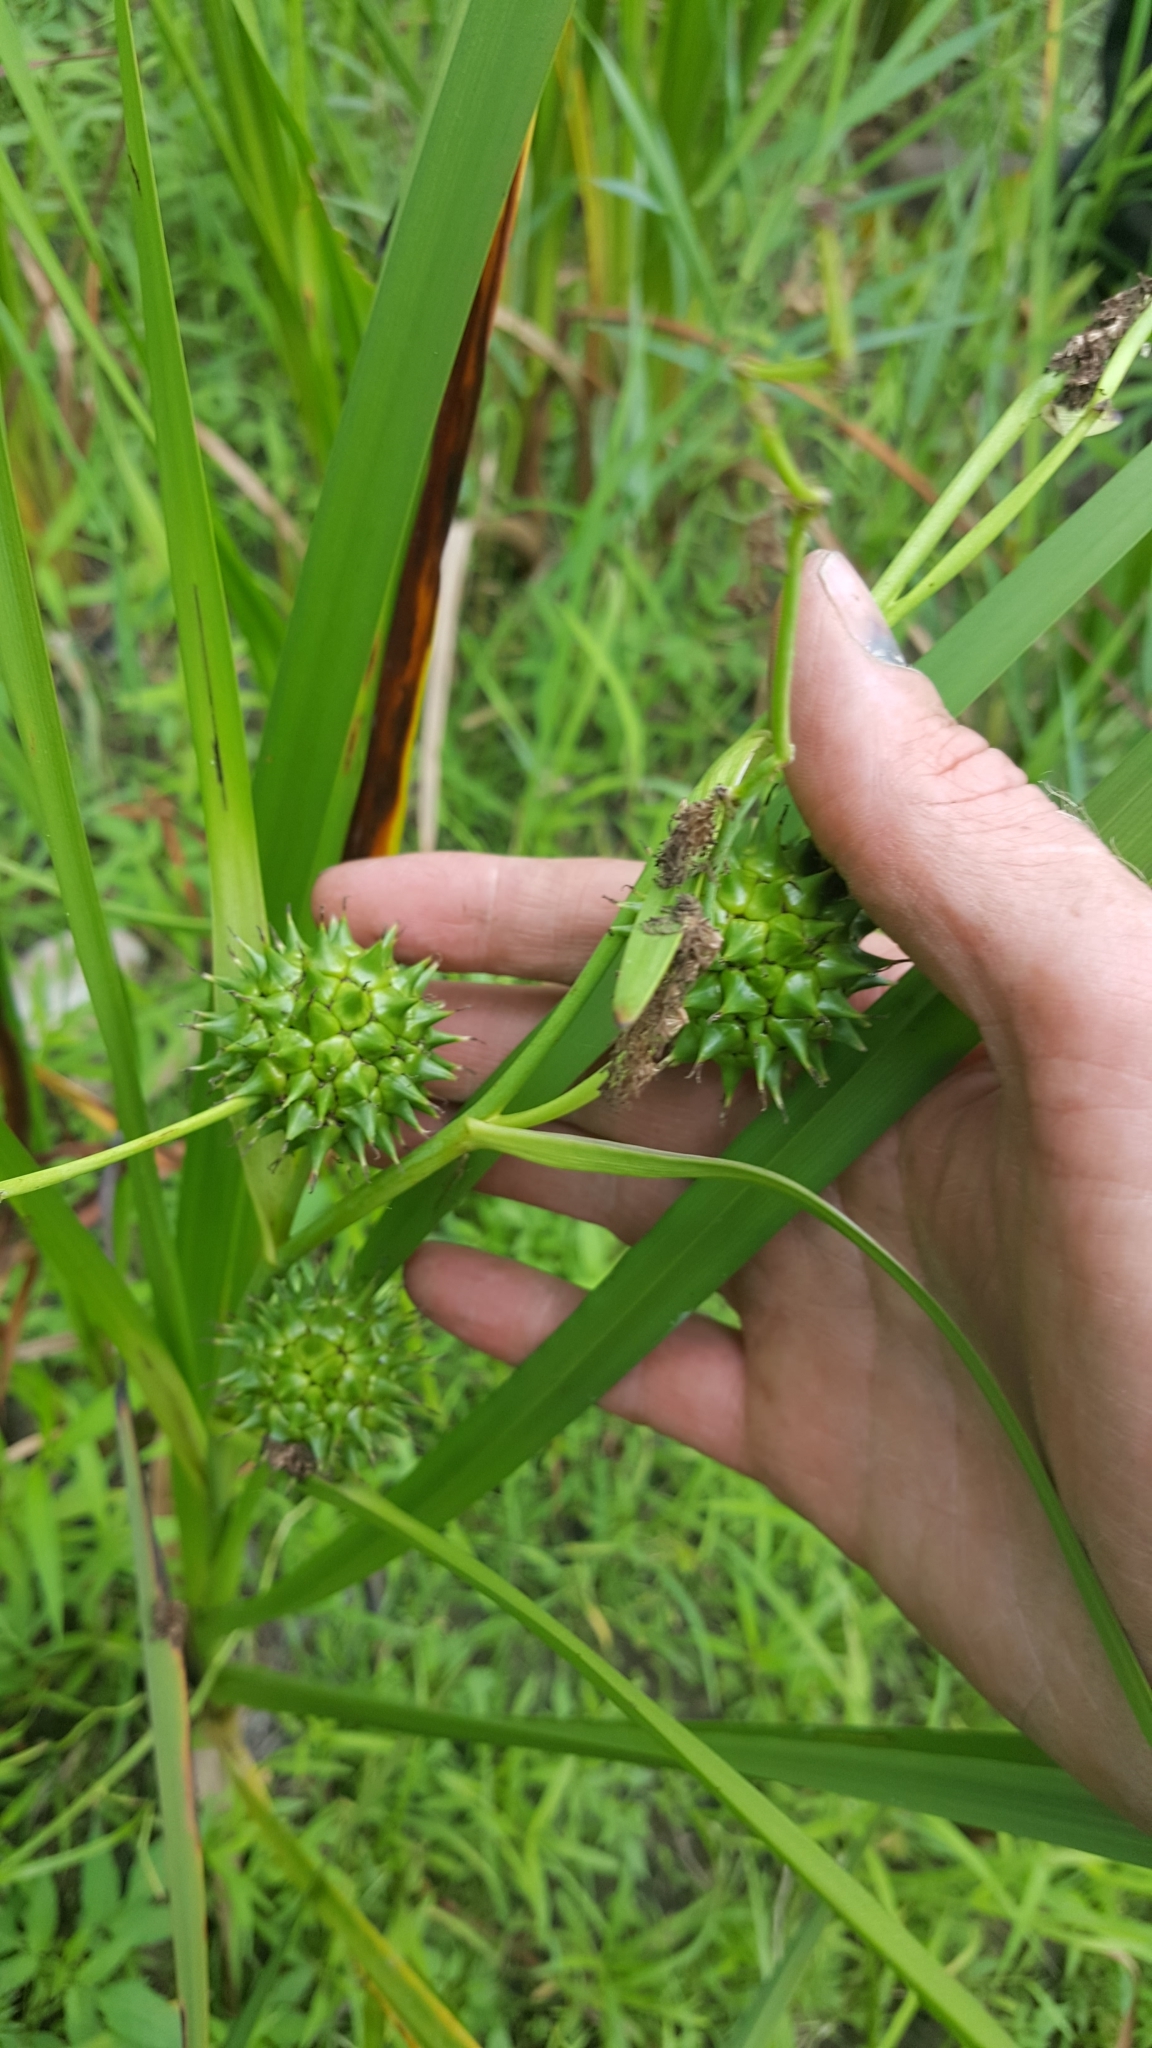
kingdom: Plantae
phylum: Tracheophyta
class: Liliopsida
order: Poales
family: Typhaceae
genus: Sparganium
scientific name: Sparganium eurycarpum
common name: Broad-fruited burreed
